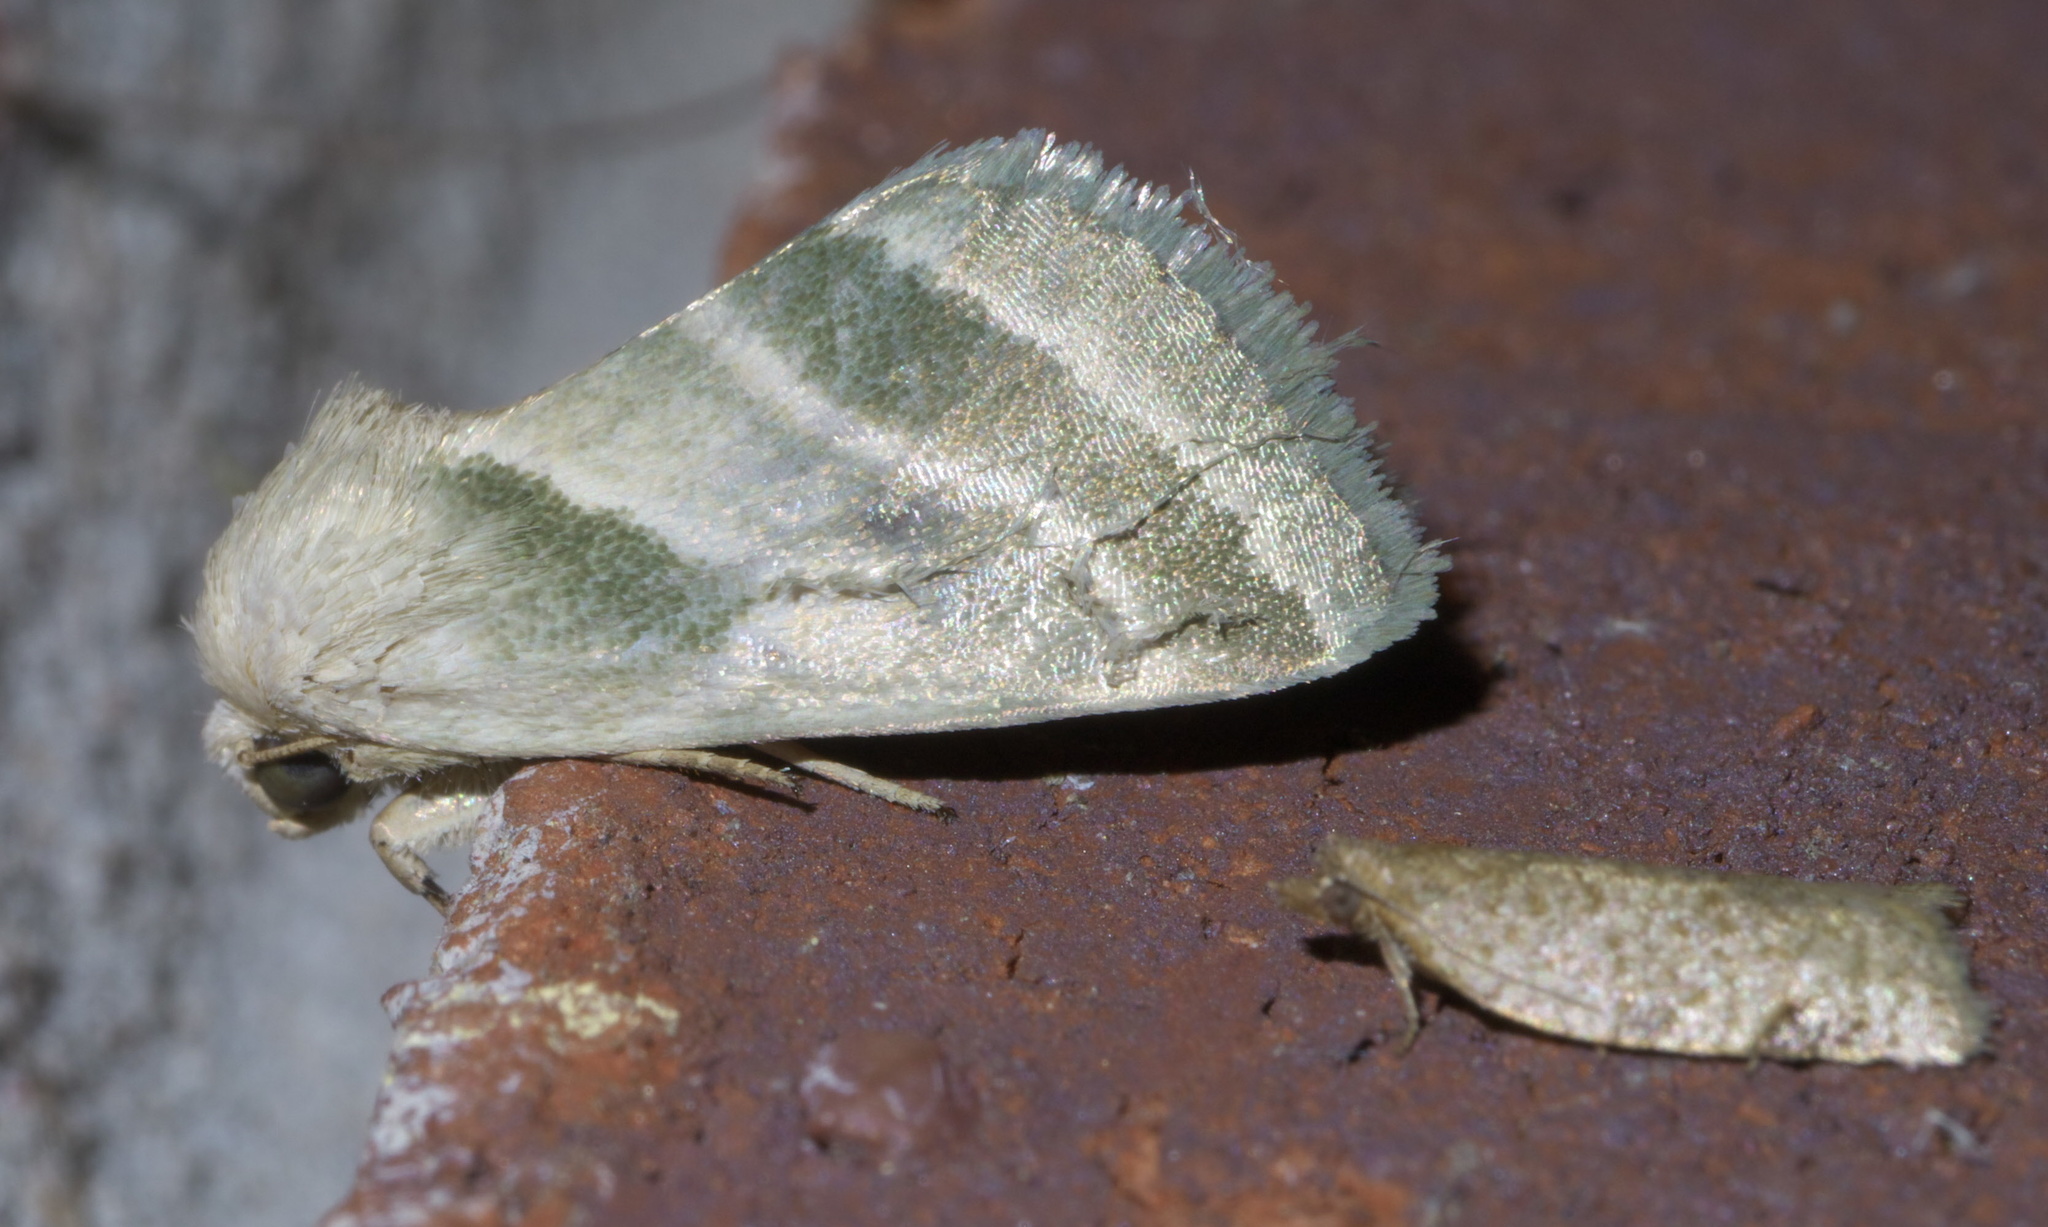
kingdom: Animalia
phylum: Arthropoda
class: Insecta
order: Lepidoptera
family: Noctuidae
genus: Schinia
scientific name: Schinia trifascia
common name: Three-lined flower moth
